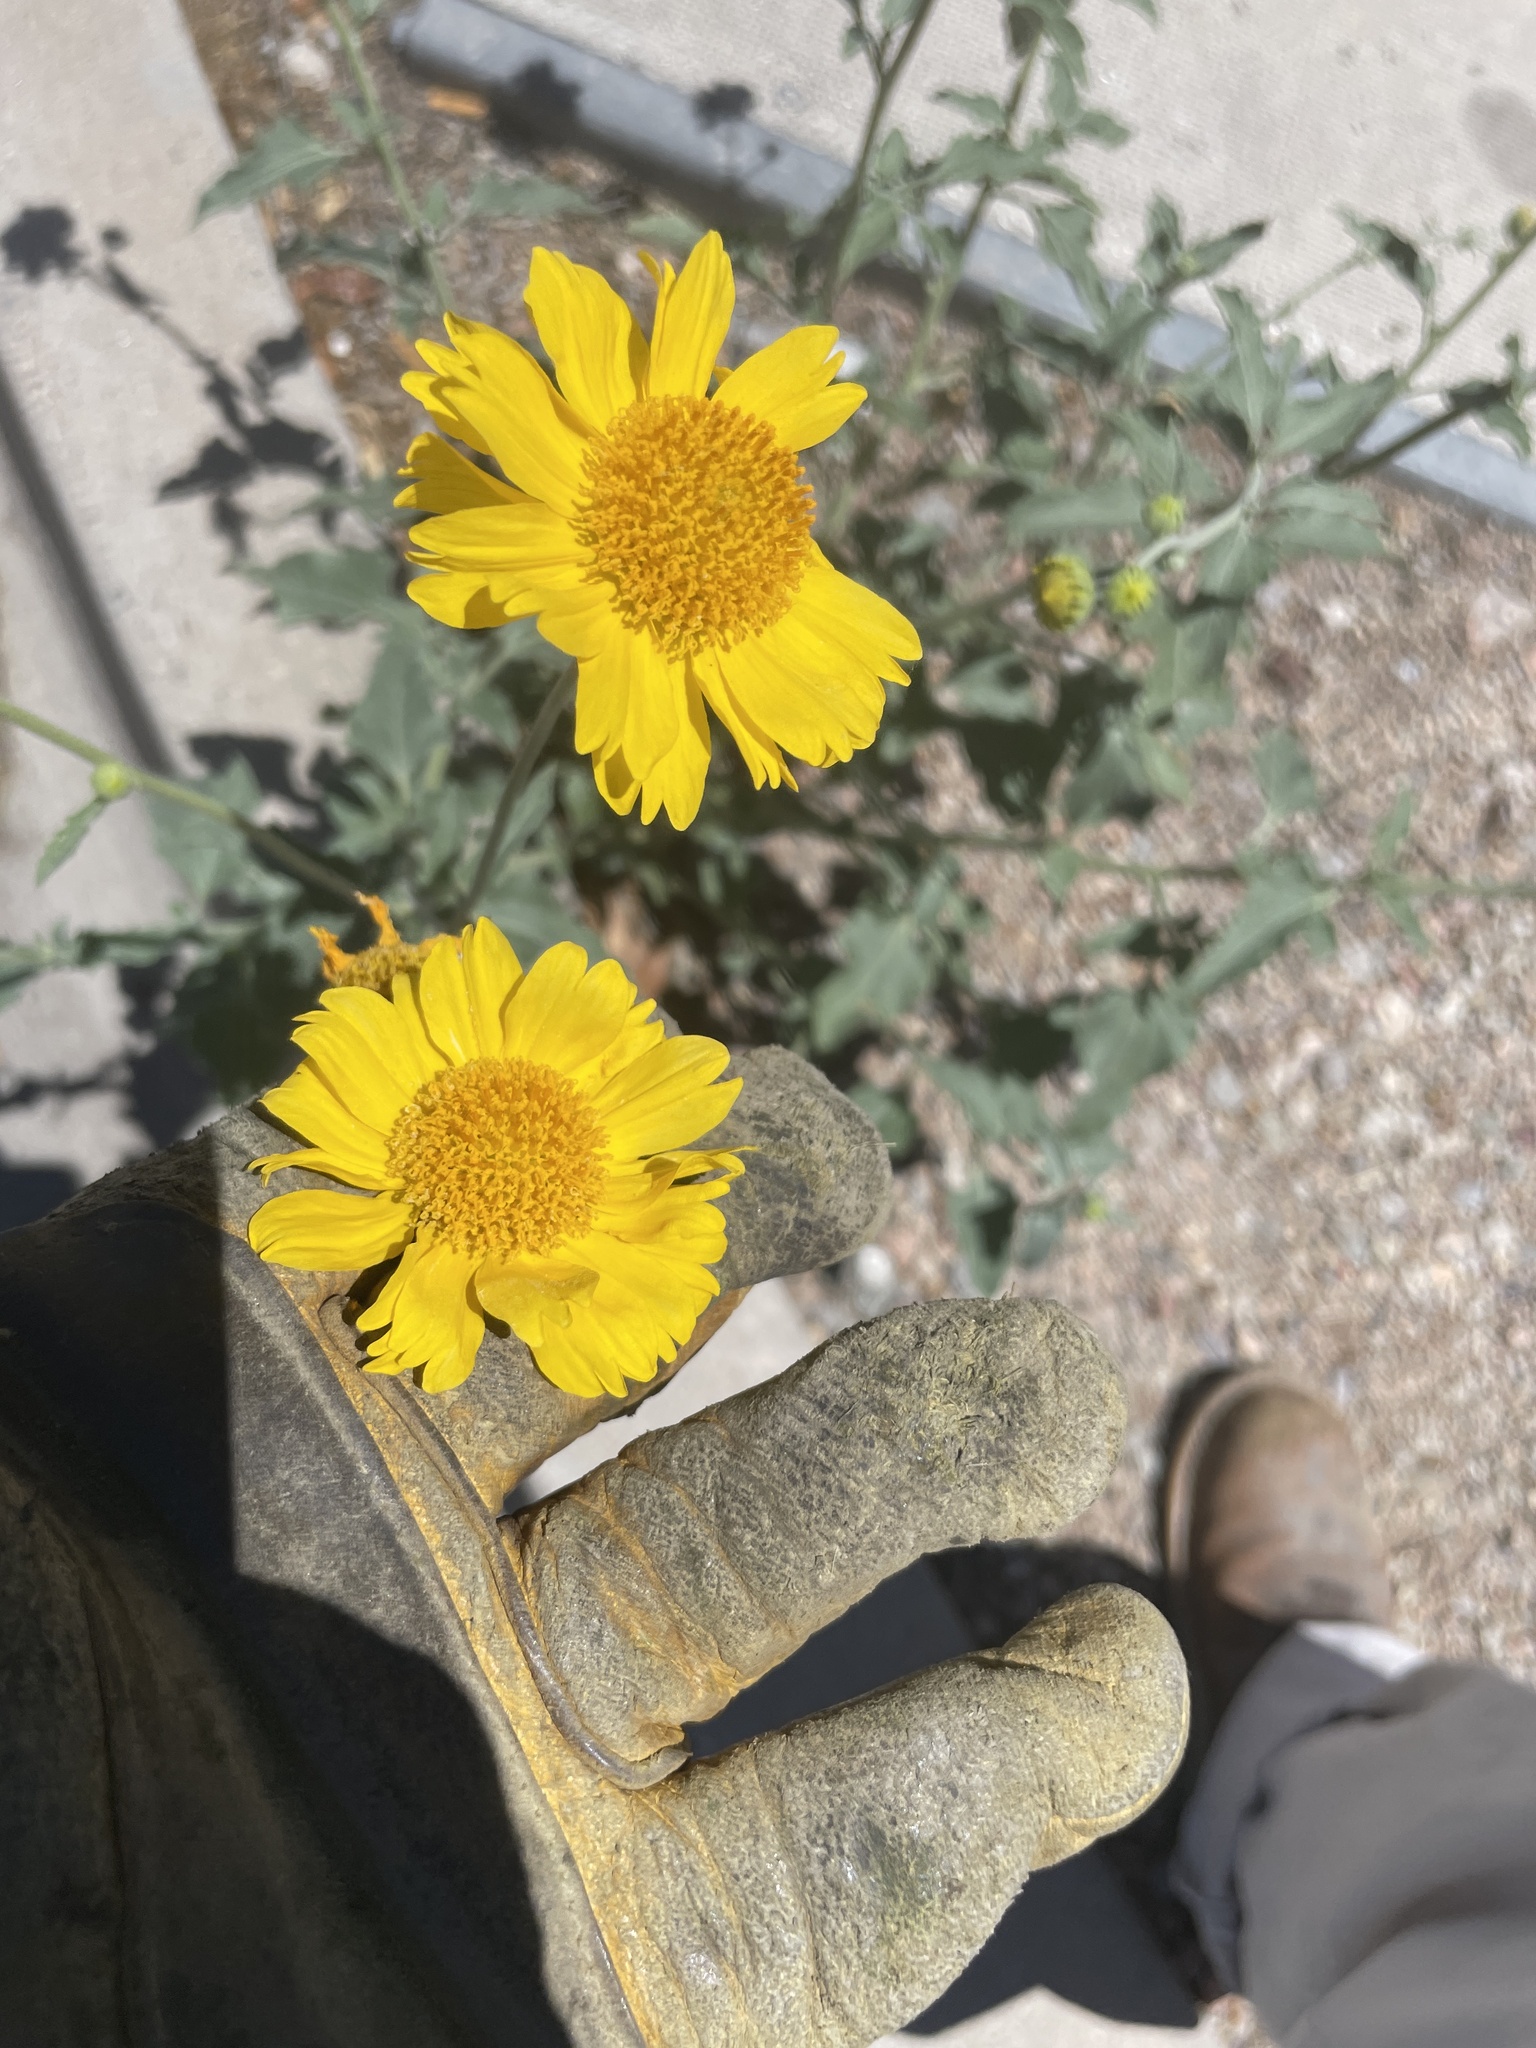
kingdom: Plantae
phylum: Tracheophyta
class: Magnoliopsida
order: Asterales
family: Asteraceae
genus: Verbesina
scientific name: Verbesina encelioides
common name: Golden crownbeard
